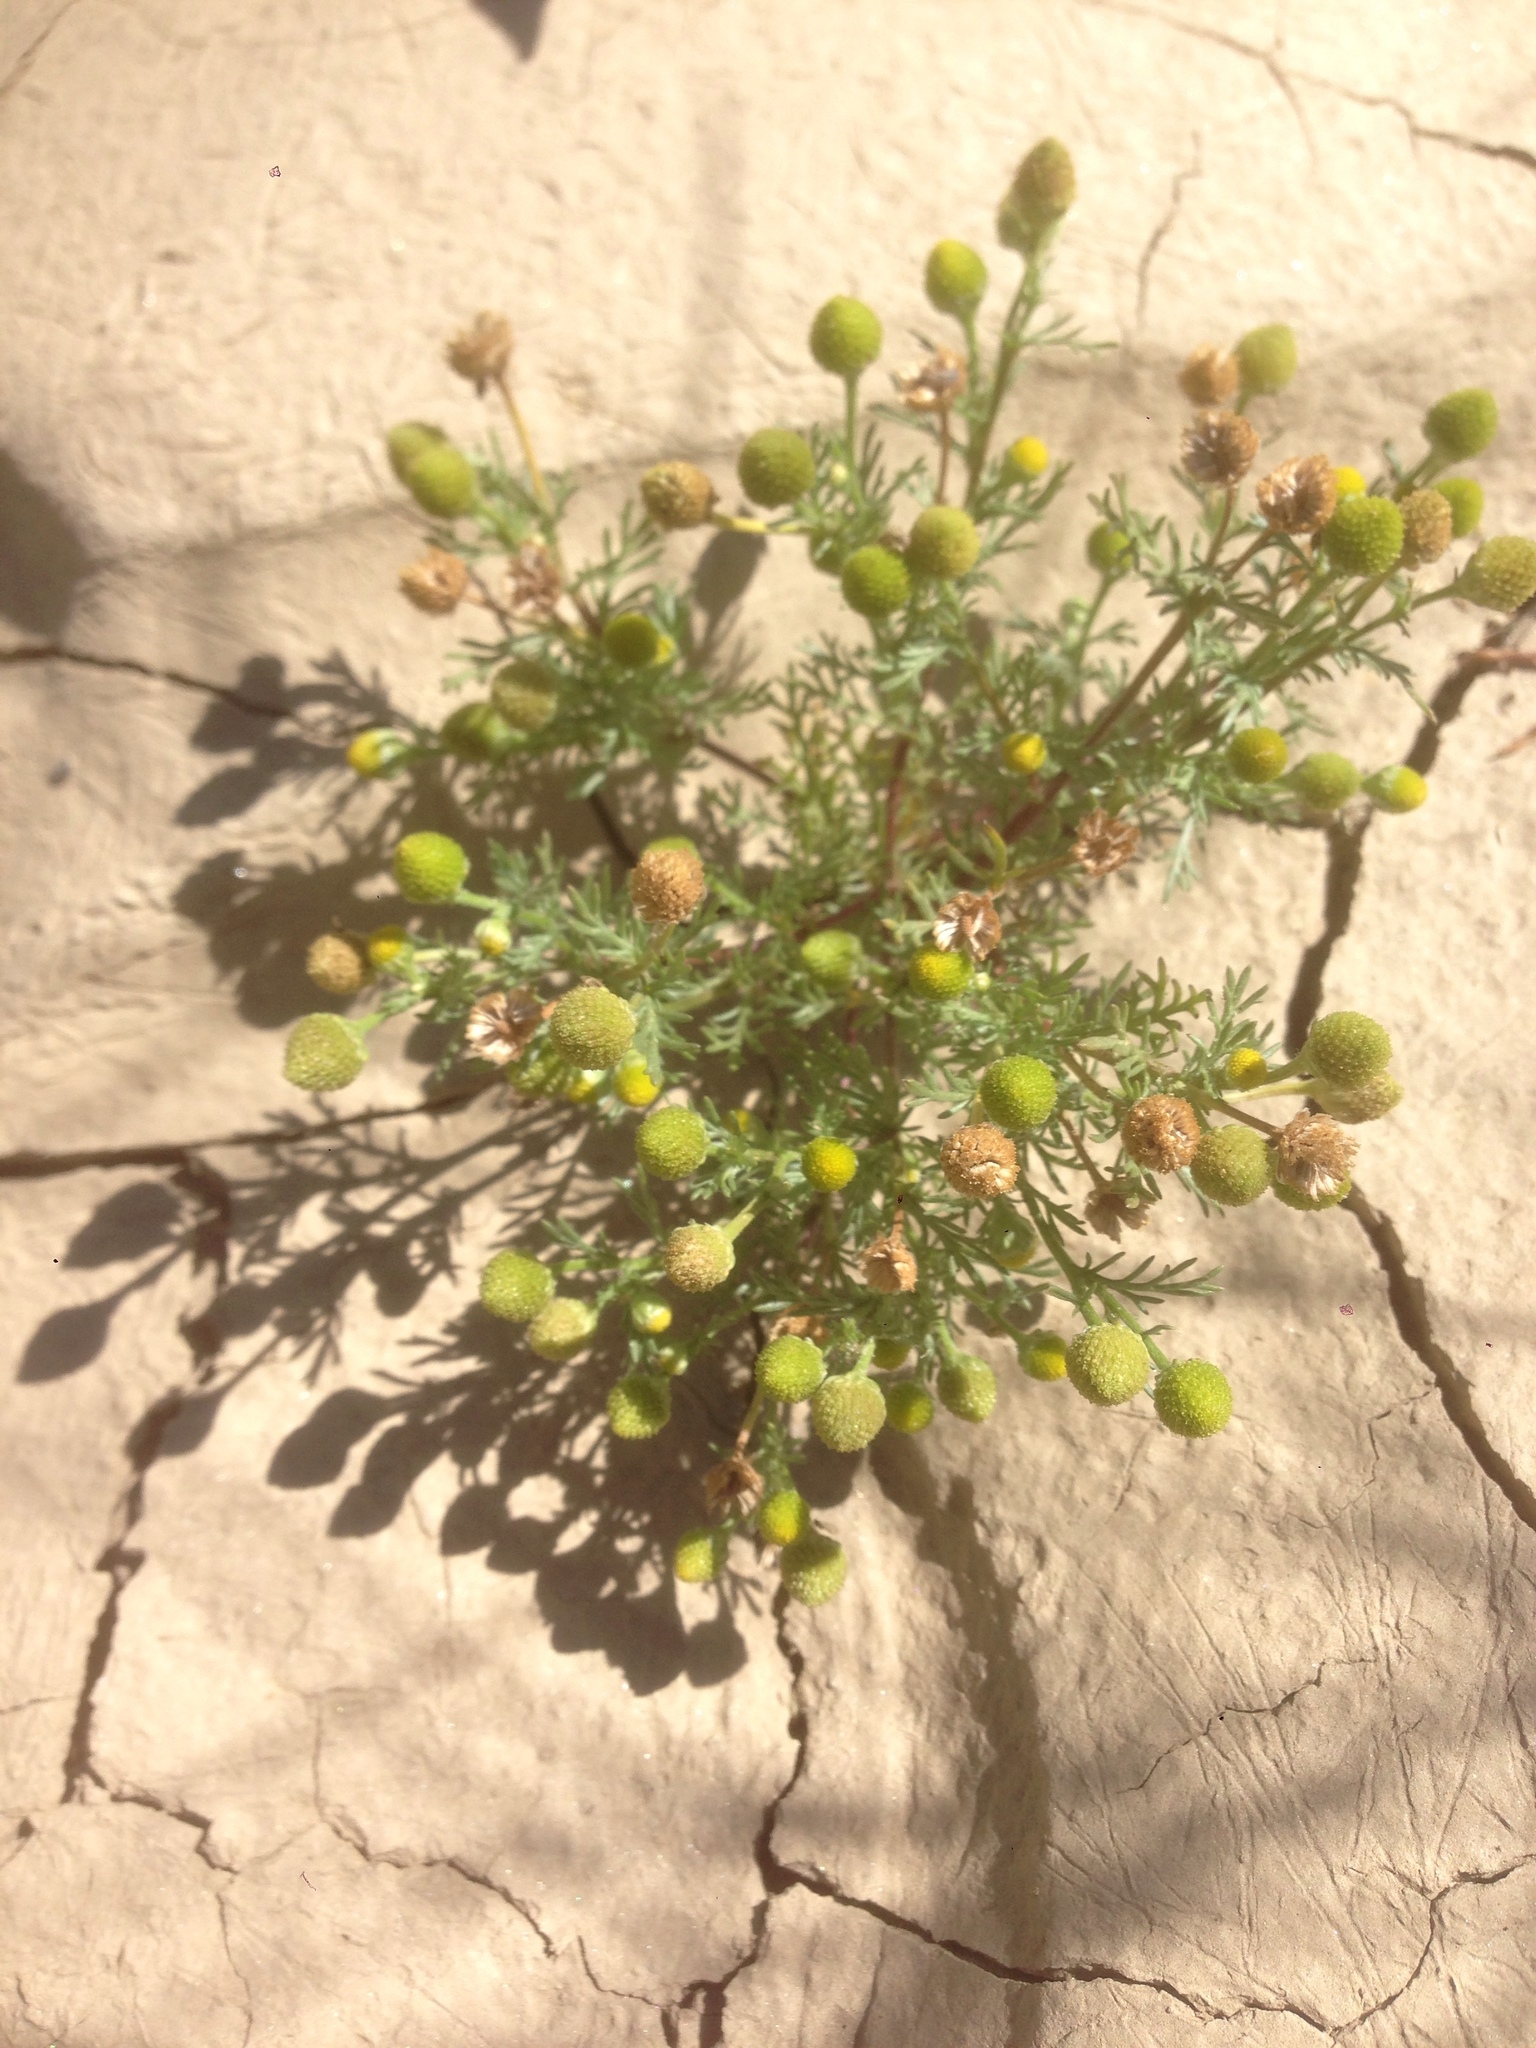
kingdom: Plantae
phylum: Tracheophyta
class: Magnoliopsida
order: Asterales
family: Asteraceae
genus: Matricaria
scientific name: Matricaria discoidea
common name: Disc mayweed
